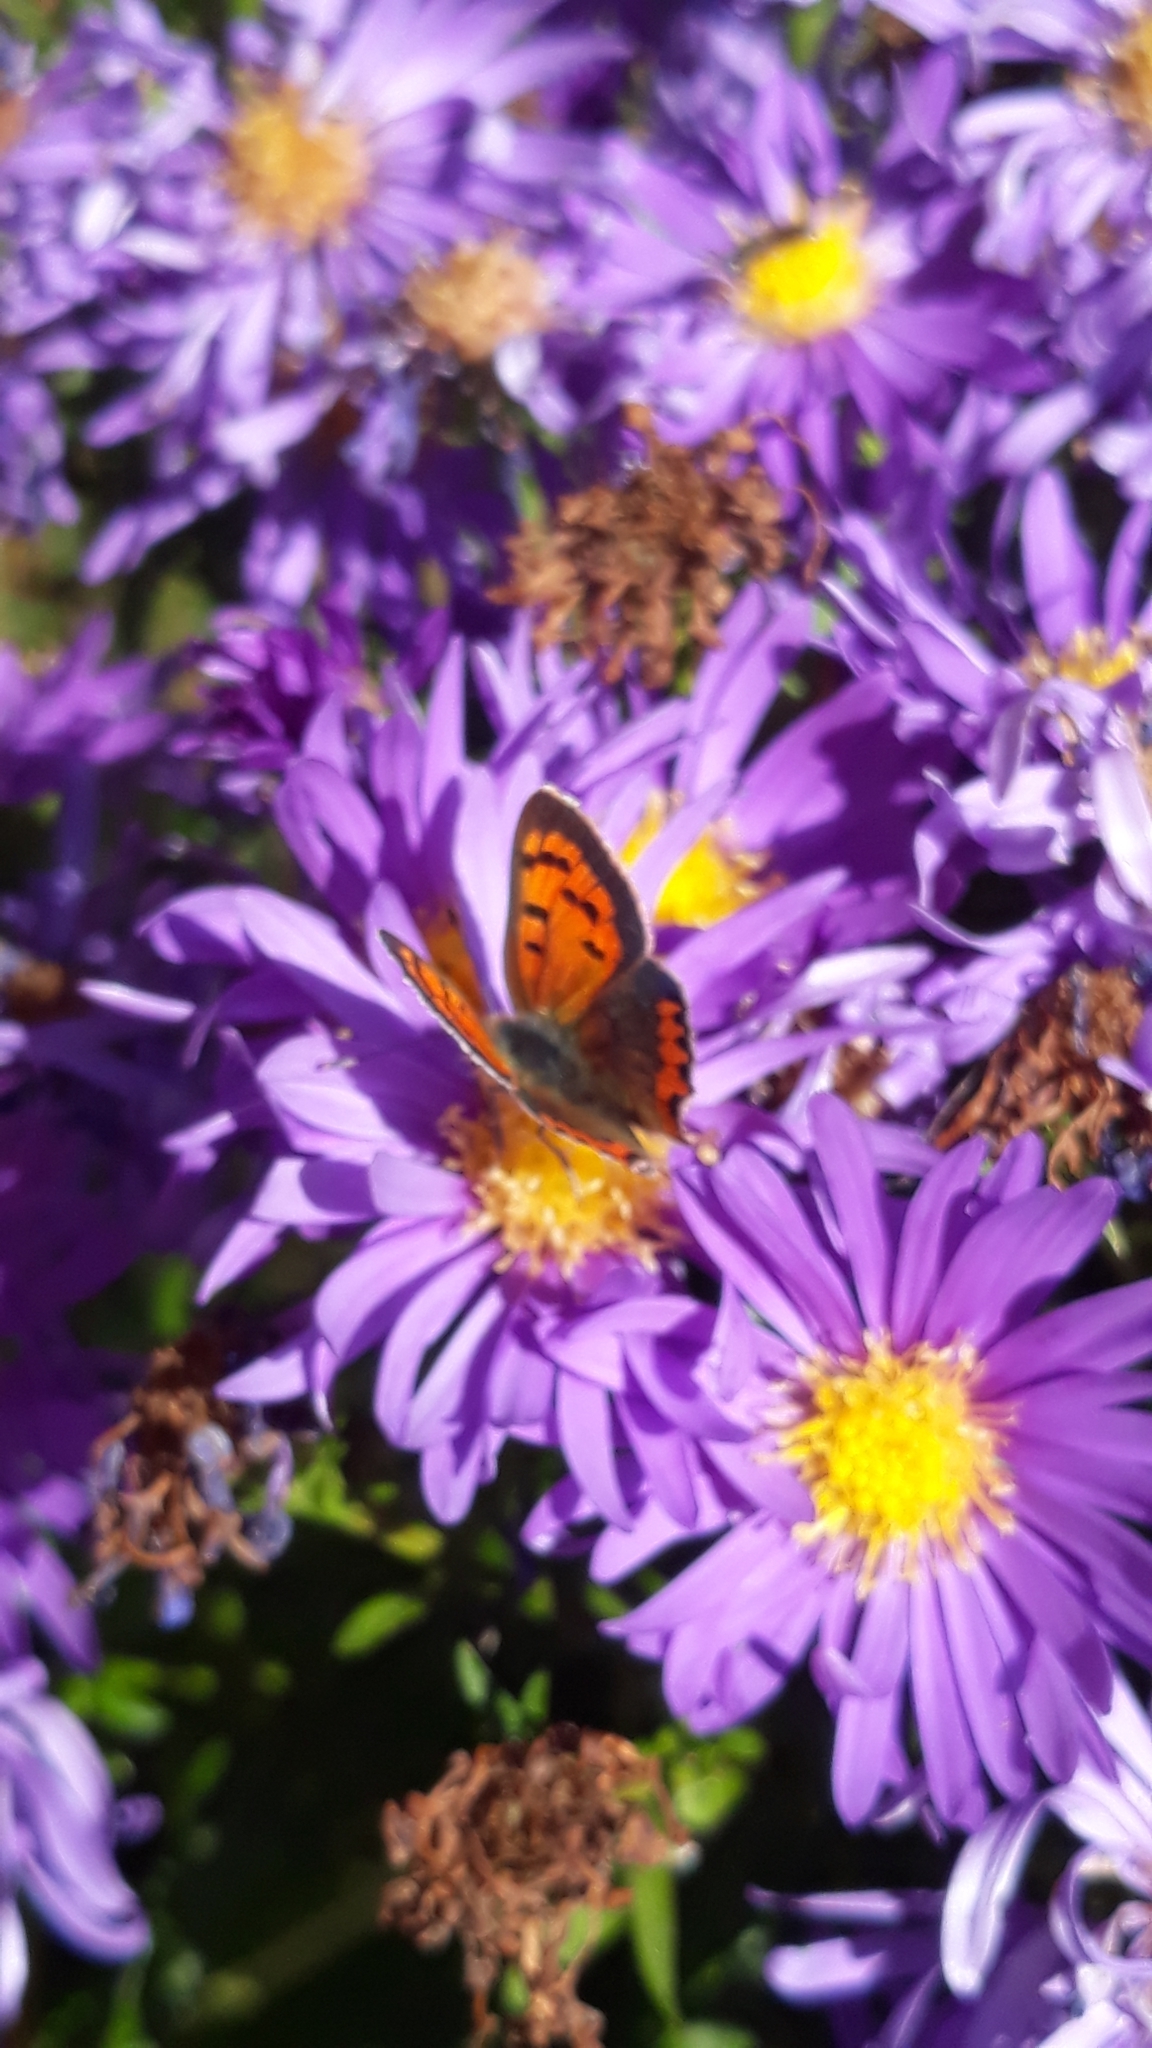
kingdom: Animalia
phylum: Arthropoda
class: Insecta
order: Lepidoptera
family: Lycaenidae
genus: Lycaena
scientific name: Lycaena phlaeas
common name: Small copper
